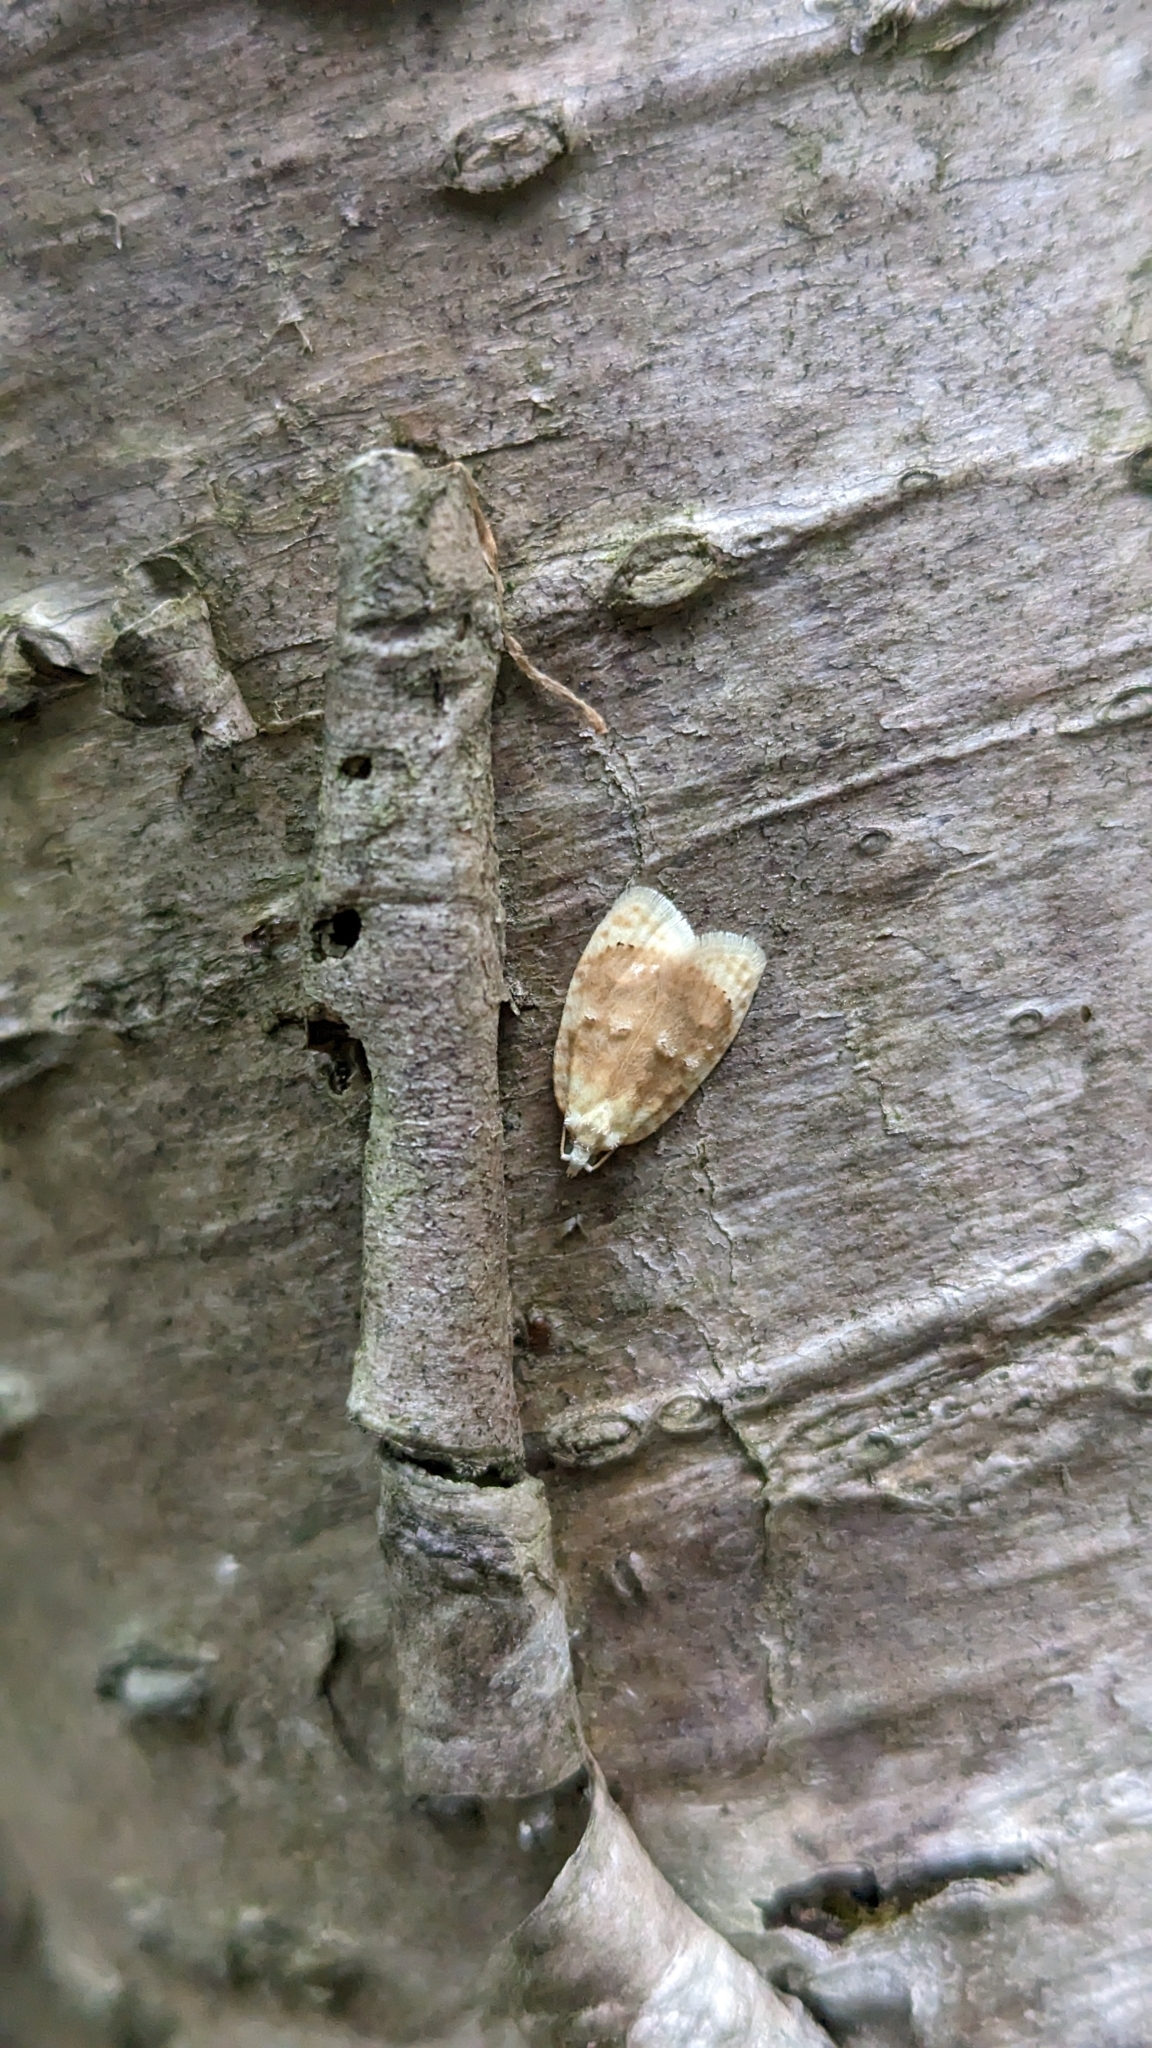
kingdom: Animalia
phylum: Arthropoda
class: Insecta
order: Lepidoptera
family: Tortricidae
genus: Acleris
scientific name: Acleris semipurpurana
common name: Oak leaftier moth
